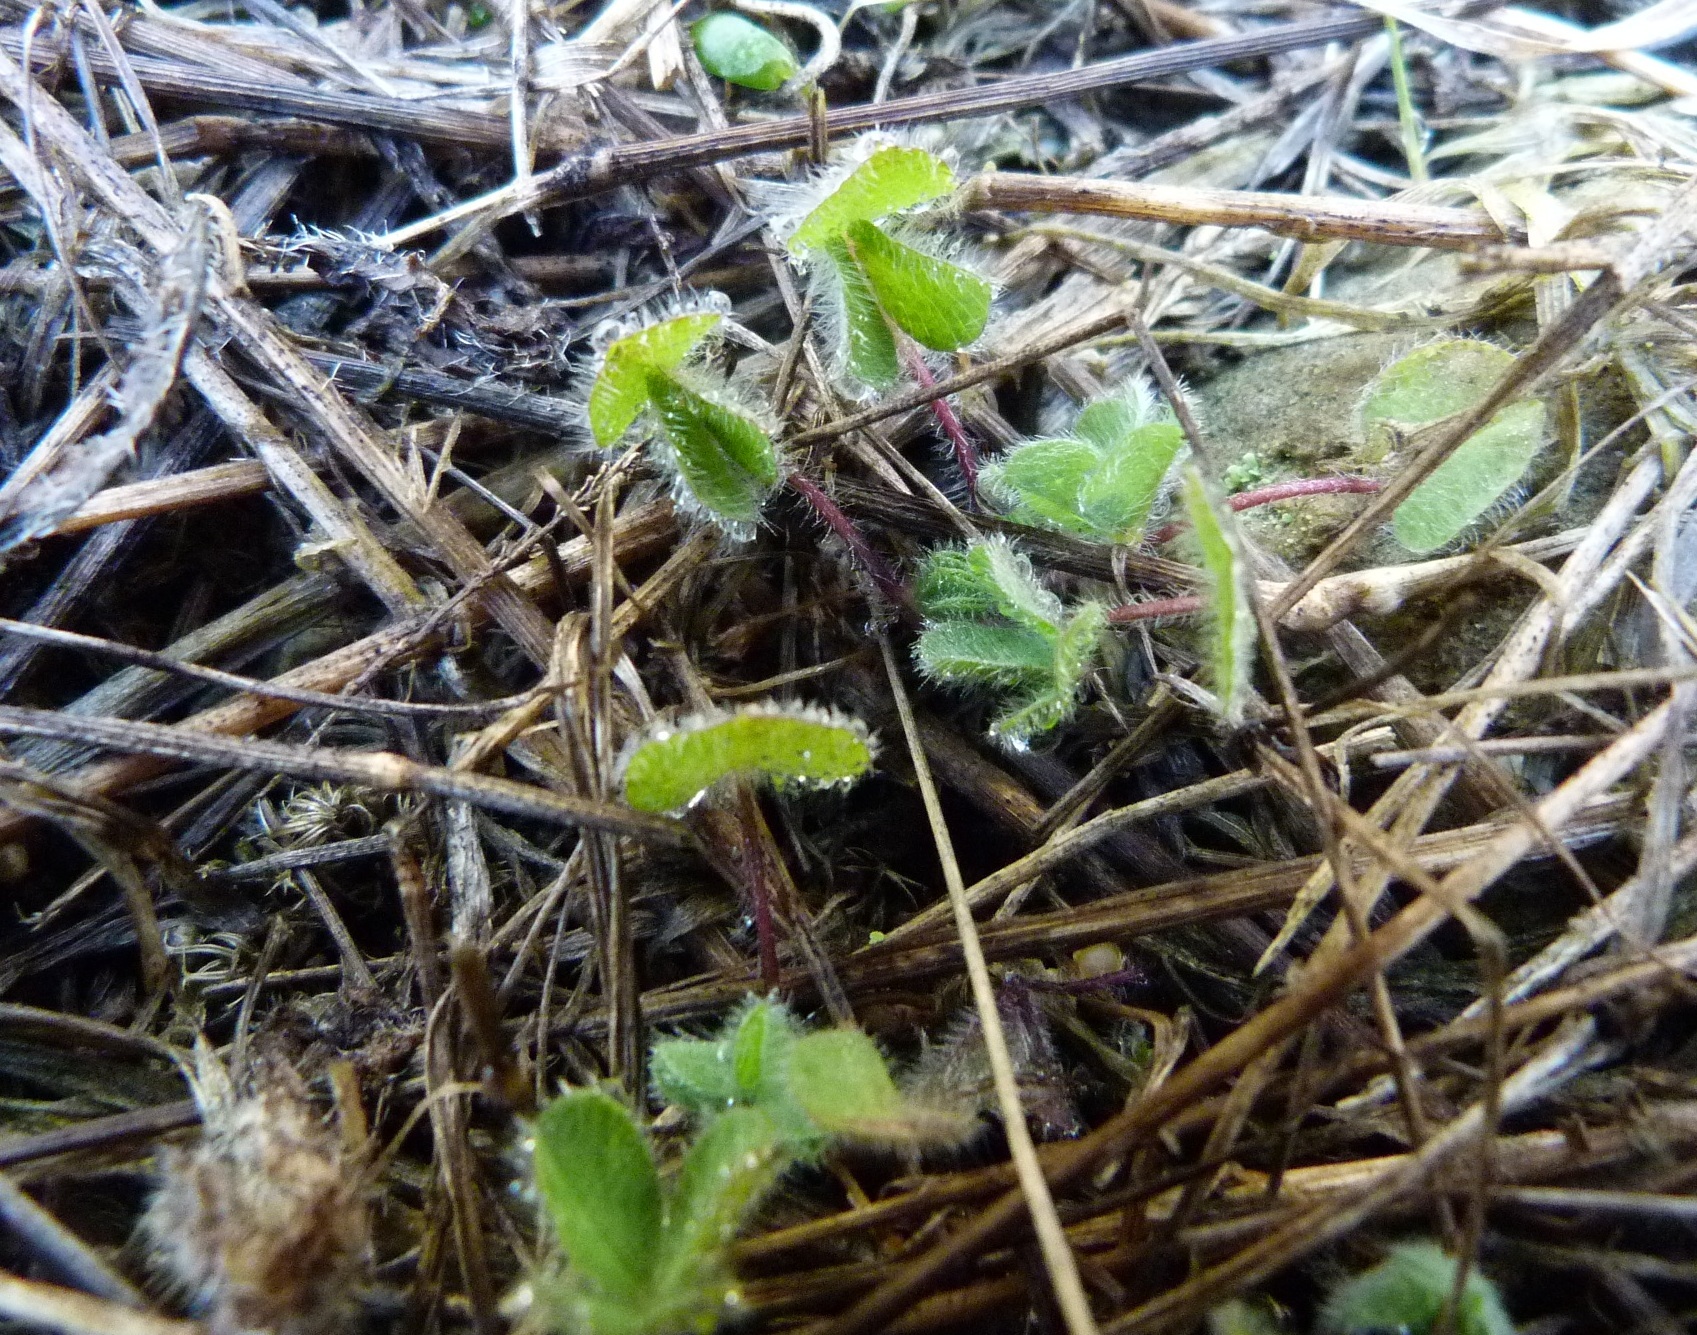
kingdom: Plantae
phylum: Tracheophyta
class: Magnoliopsida
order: Fabales
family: Fabaceae
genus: Trifolium
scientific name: Trifolium subterraneum
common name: Subterranean clover
